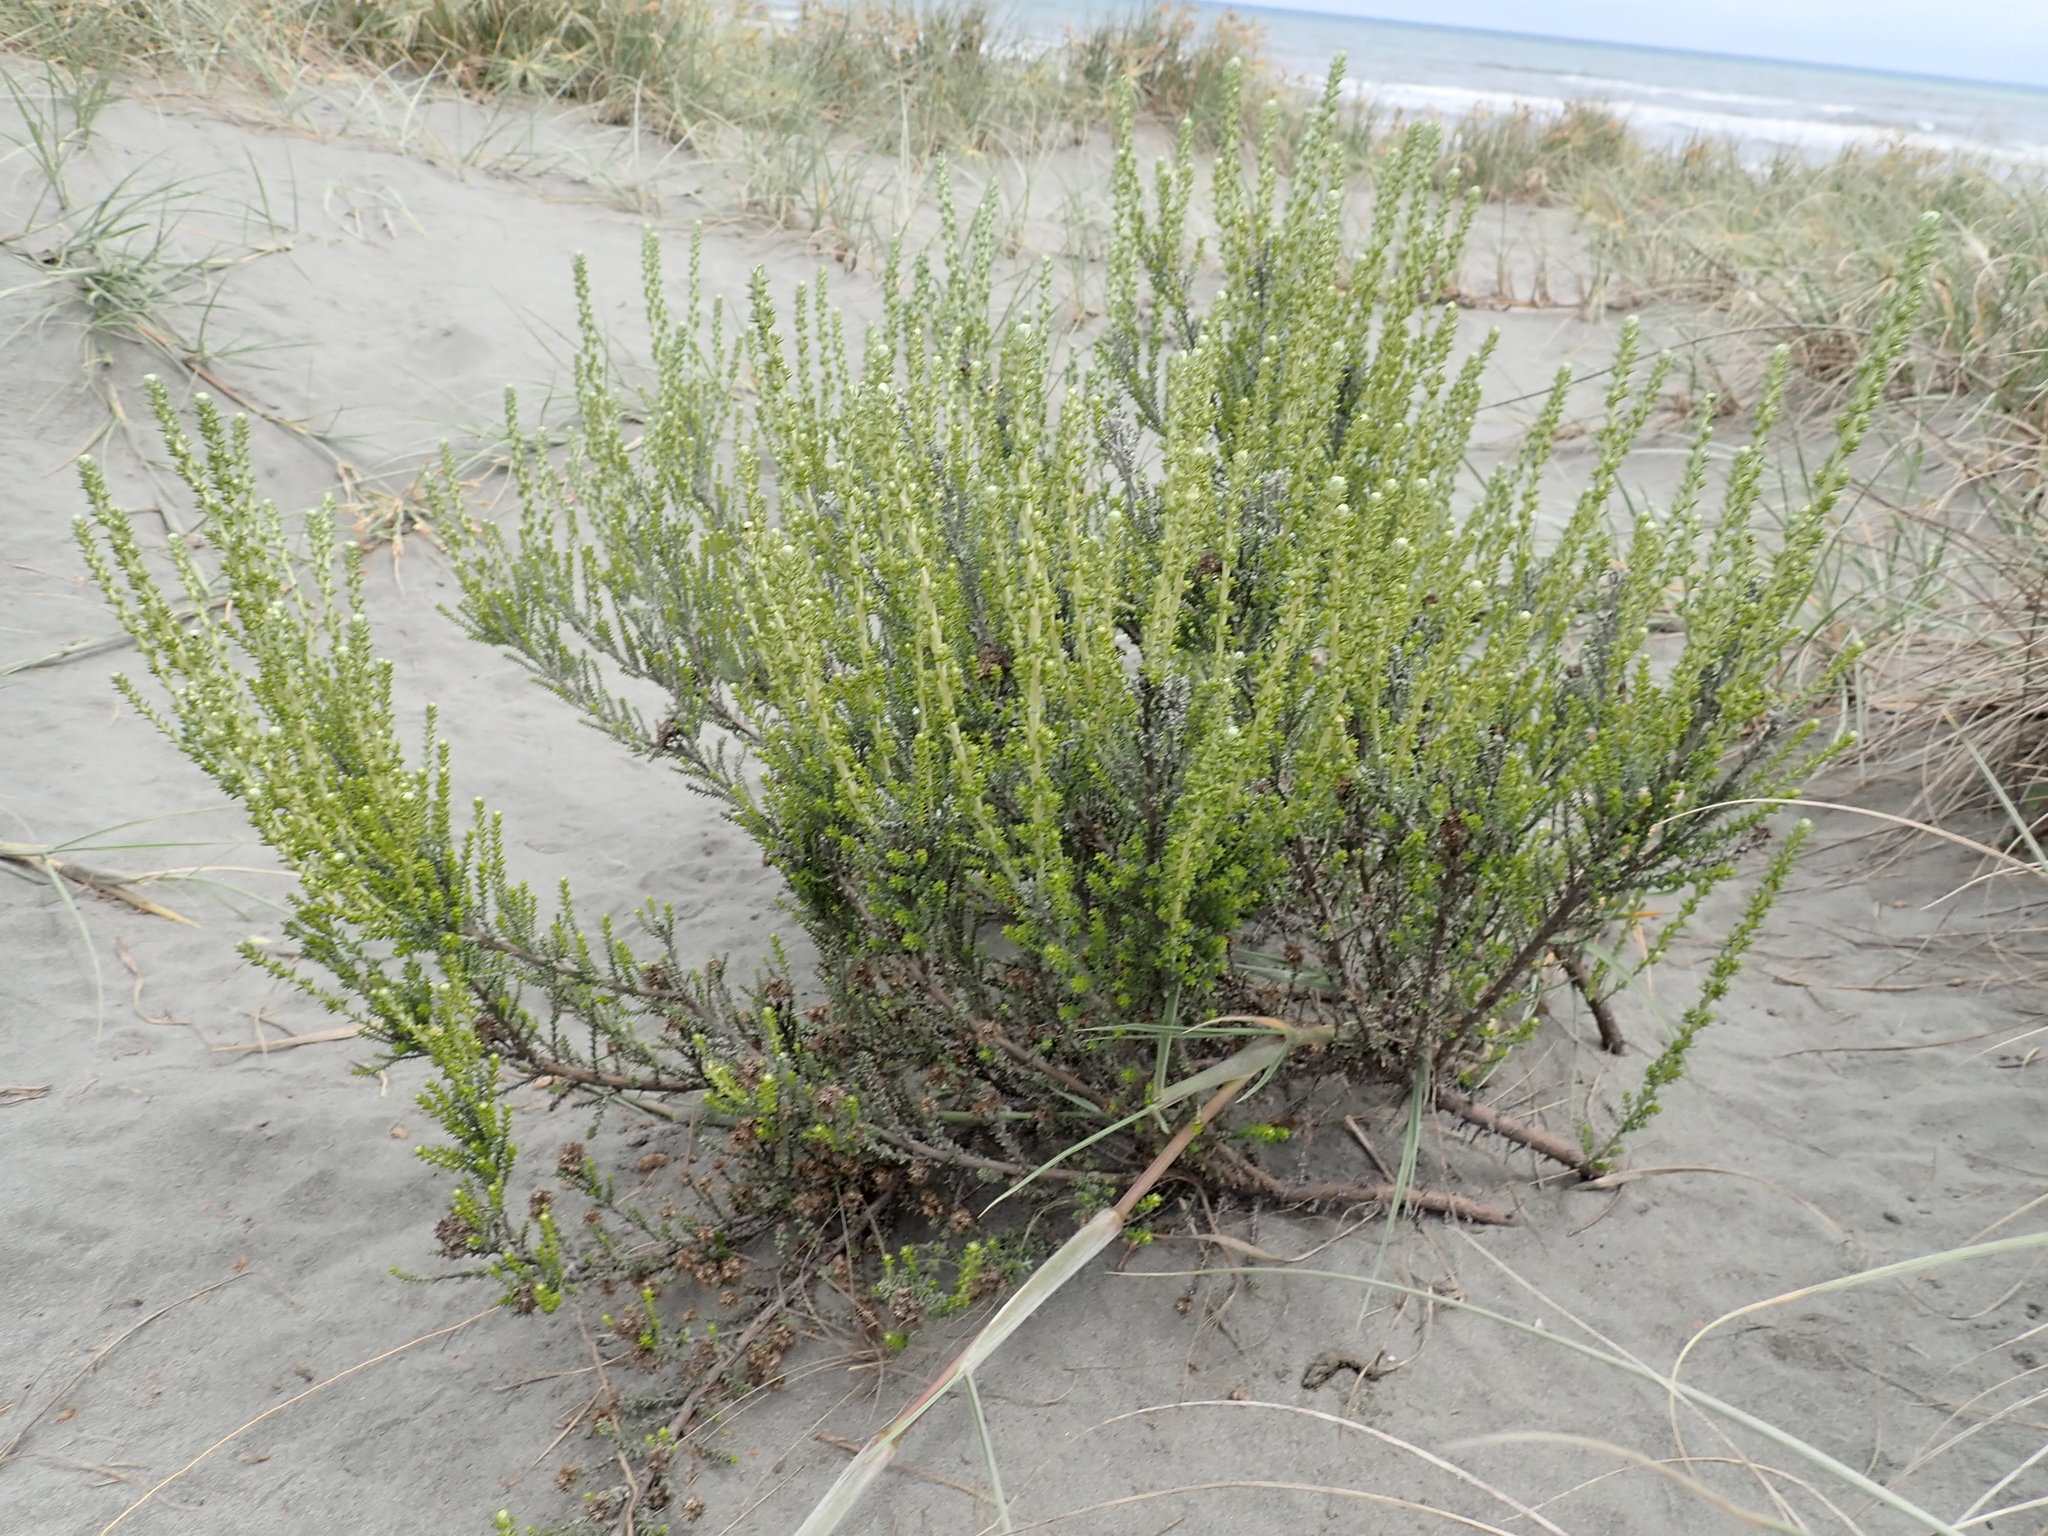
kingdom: Plantae
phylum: Tracheophyta
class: Magnoliopsida
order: Asterales
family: Asteraceae
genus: Ozothamnus
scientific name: Ozothamnus leptophyllus
